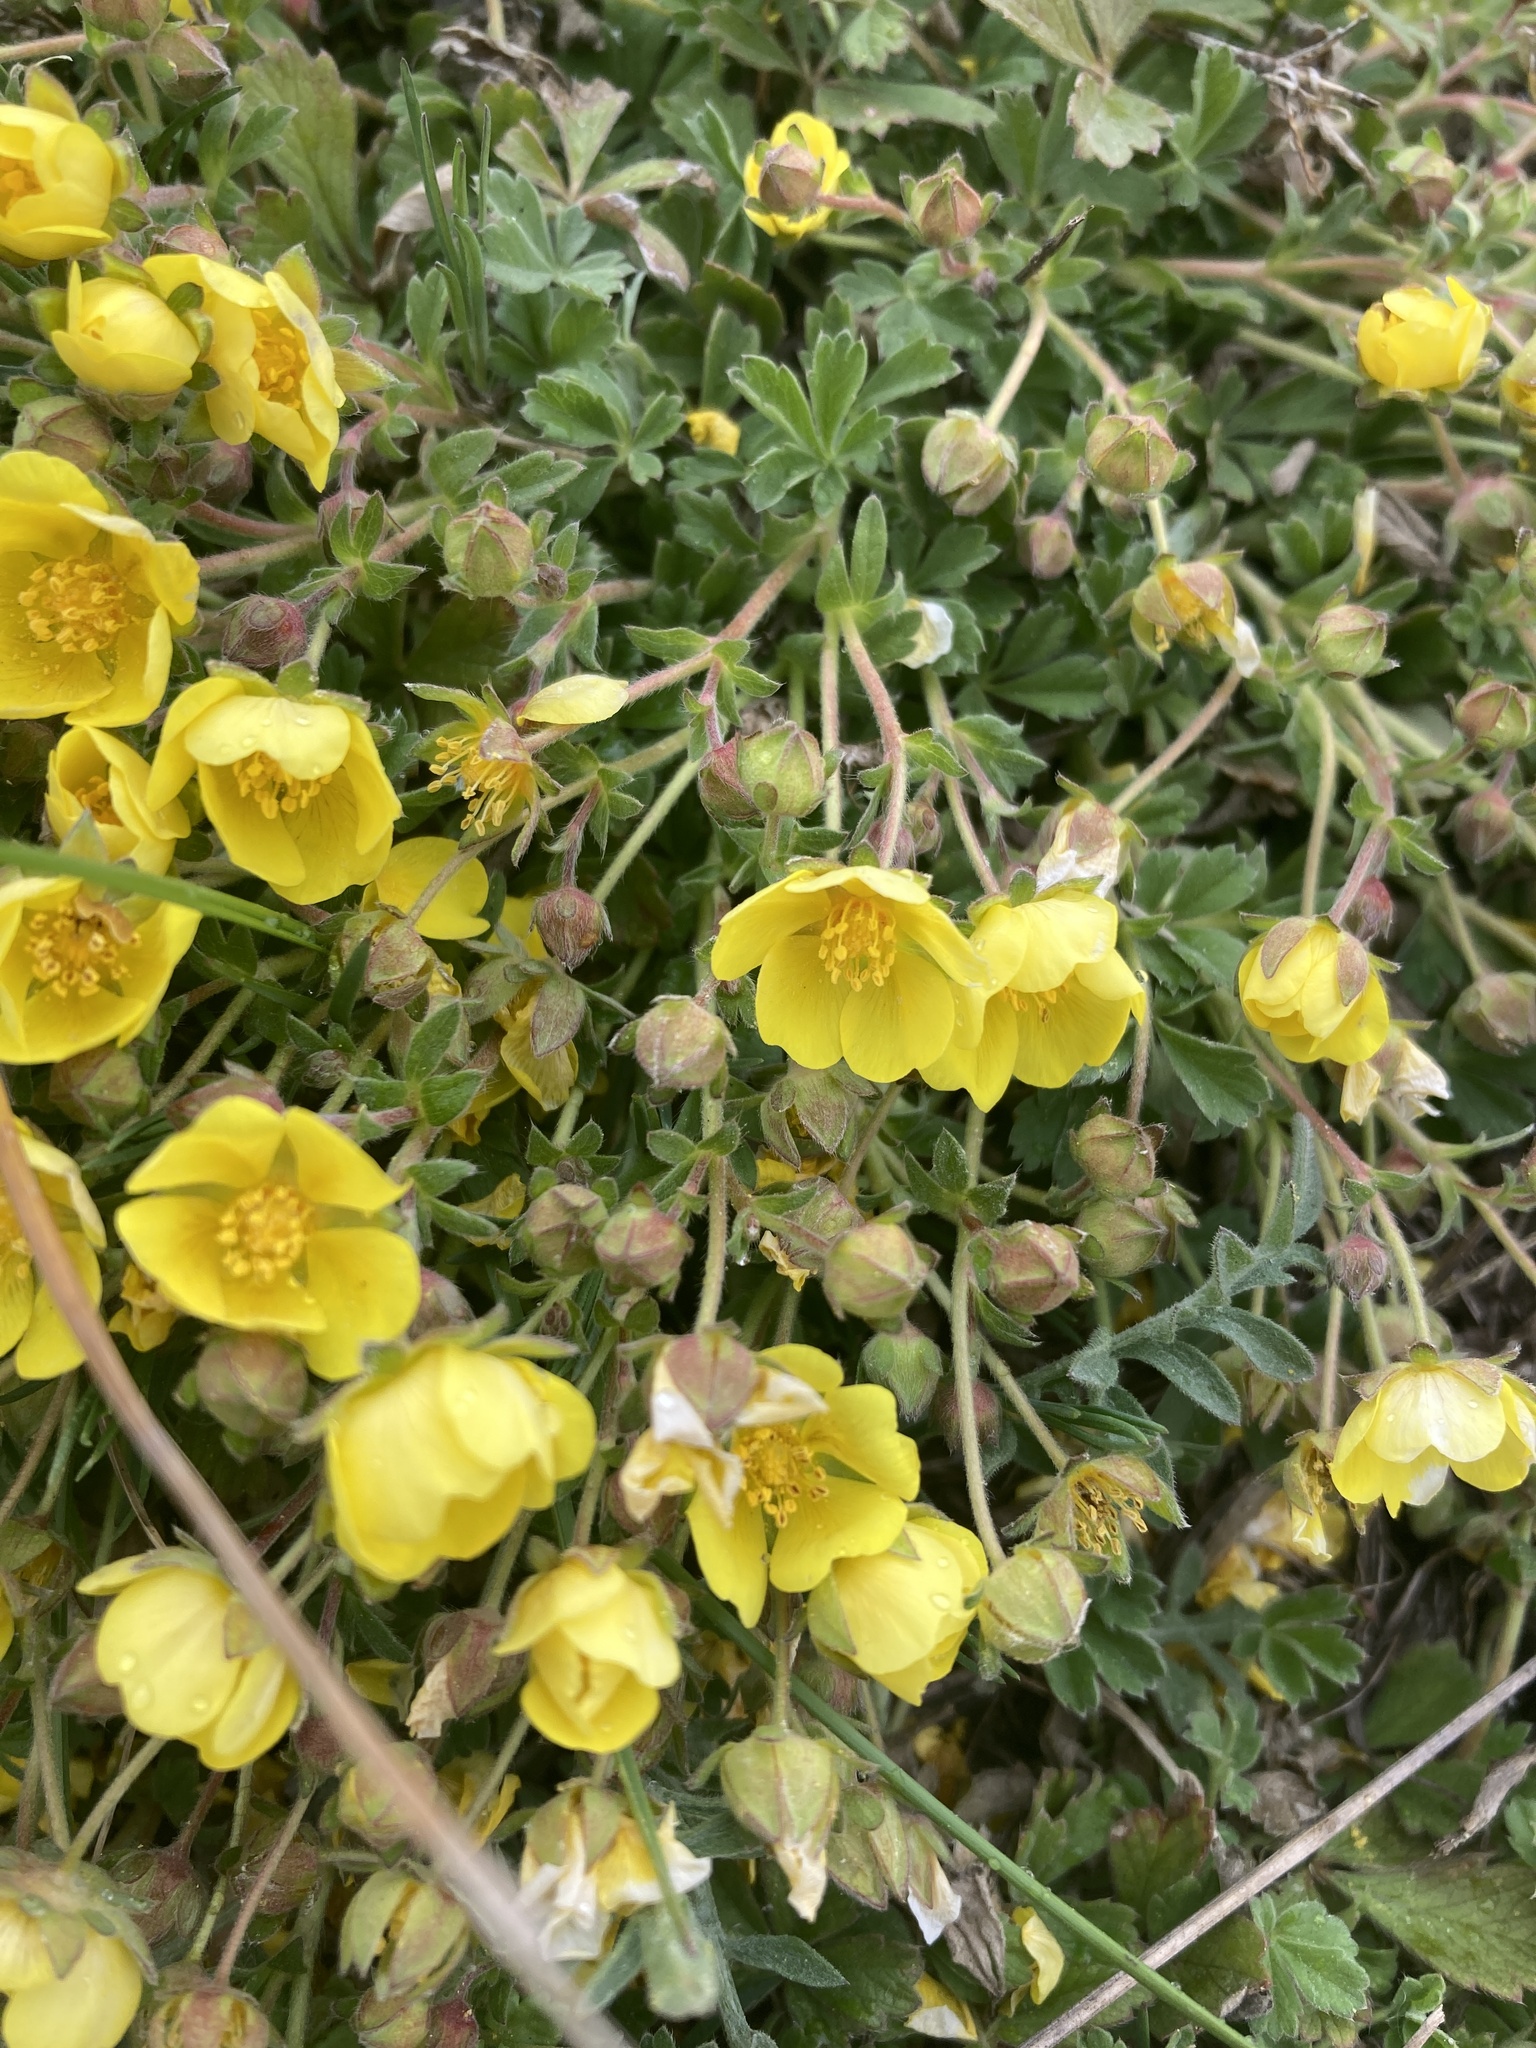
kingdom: Plantae
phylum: Tracheophyta
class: Magnoliopsida
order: Rosales
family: Rosaceae
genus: Potentilla
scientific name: Potentilla incana
